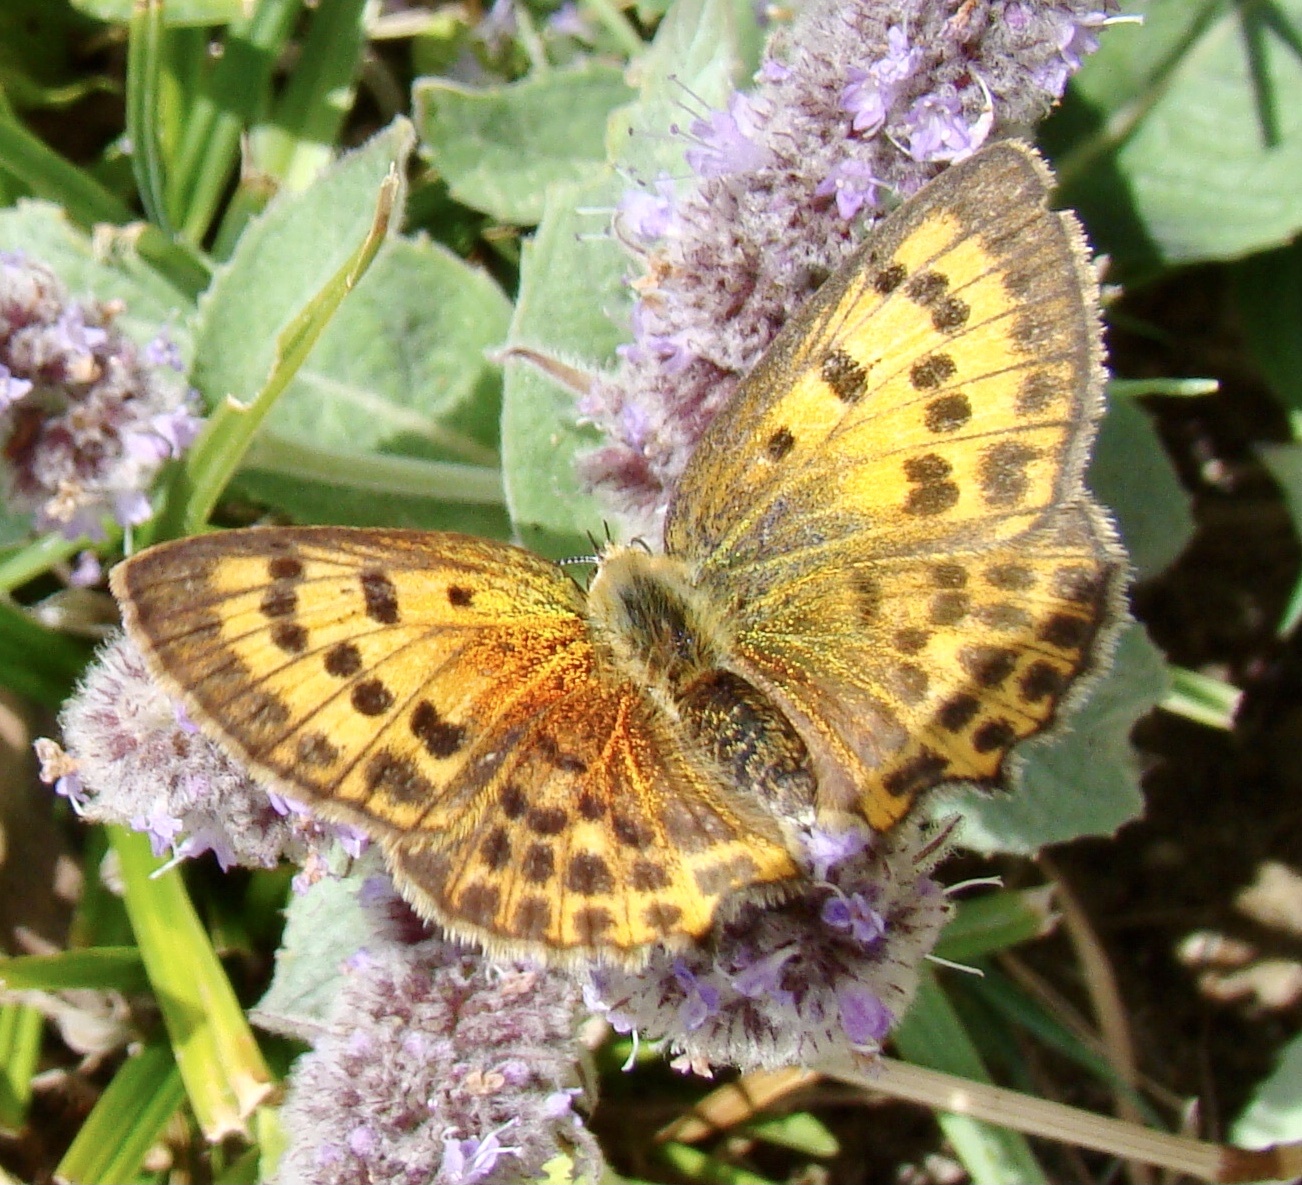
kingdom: Animalia
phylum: Arthropoda
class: Insecta
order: Lepidoptera
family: Lycaenidae
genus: Lycaena
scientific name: Lycaena virgaureae
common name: Scarce copper
